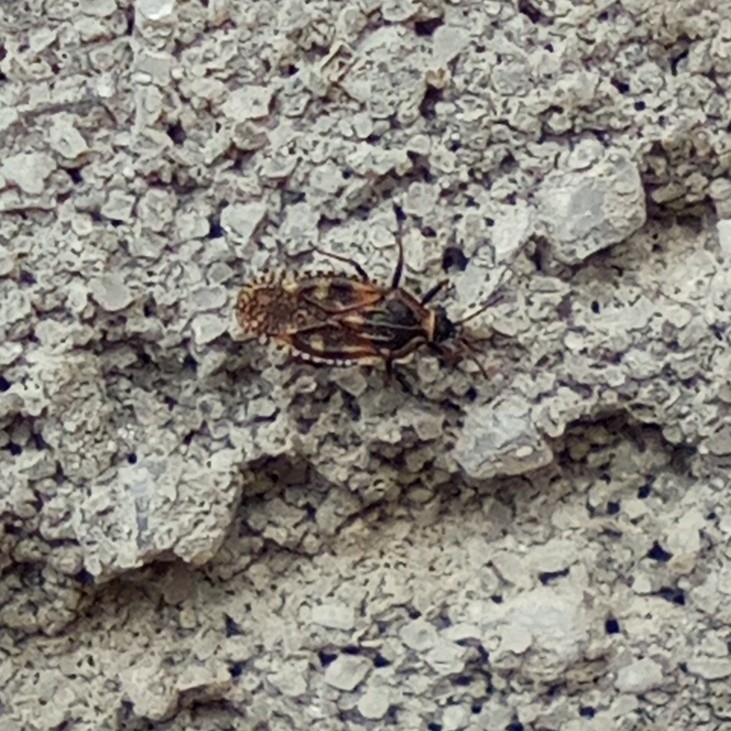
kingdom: Animalia
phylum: Arthropoda
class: Insecta
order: Hemiptera
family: Tingidae
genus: Dictyla
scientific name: Dictyla echii
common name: Lace bug
